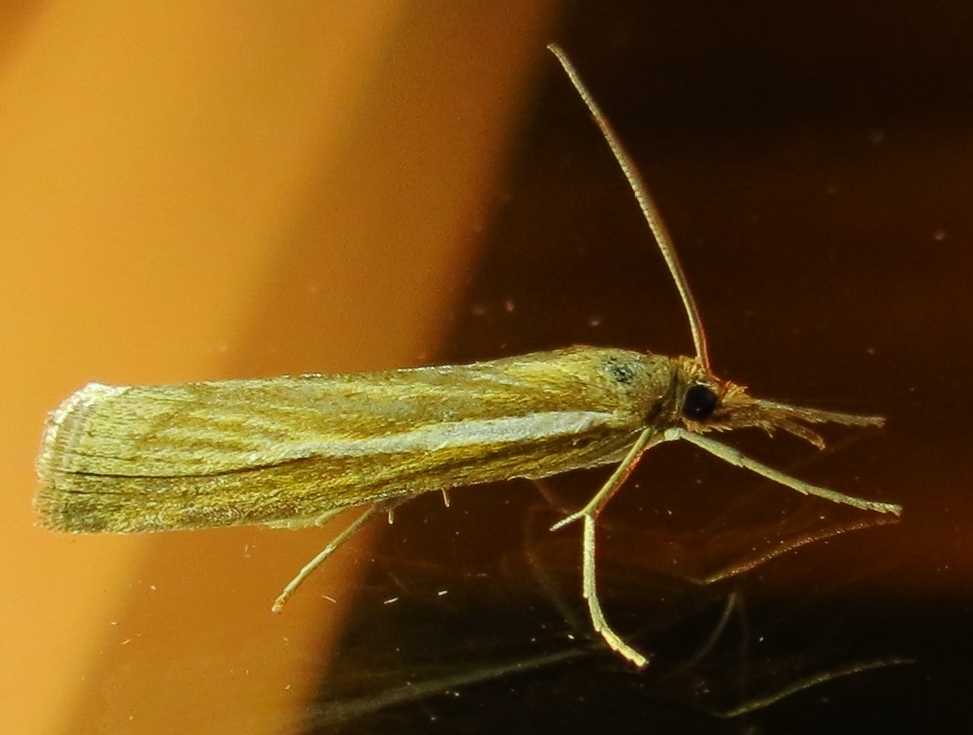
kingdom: Animalia
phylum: Arthropoda
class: Insecta
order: Lepidoptera
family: Crambidae
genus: Agriphila
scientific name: Agriphila tristellus
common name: Common grass-veneer
